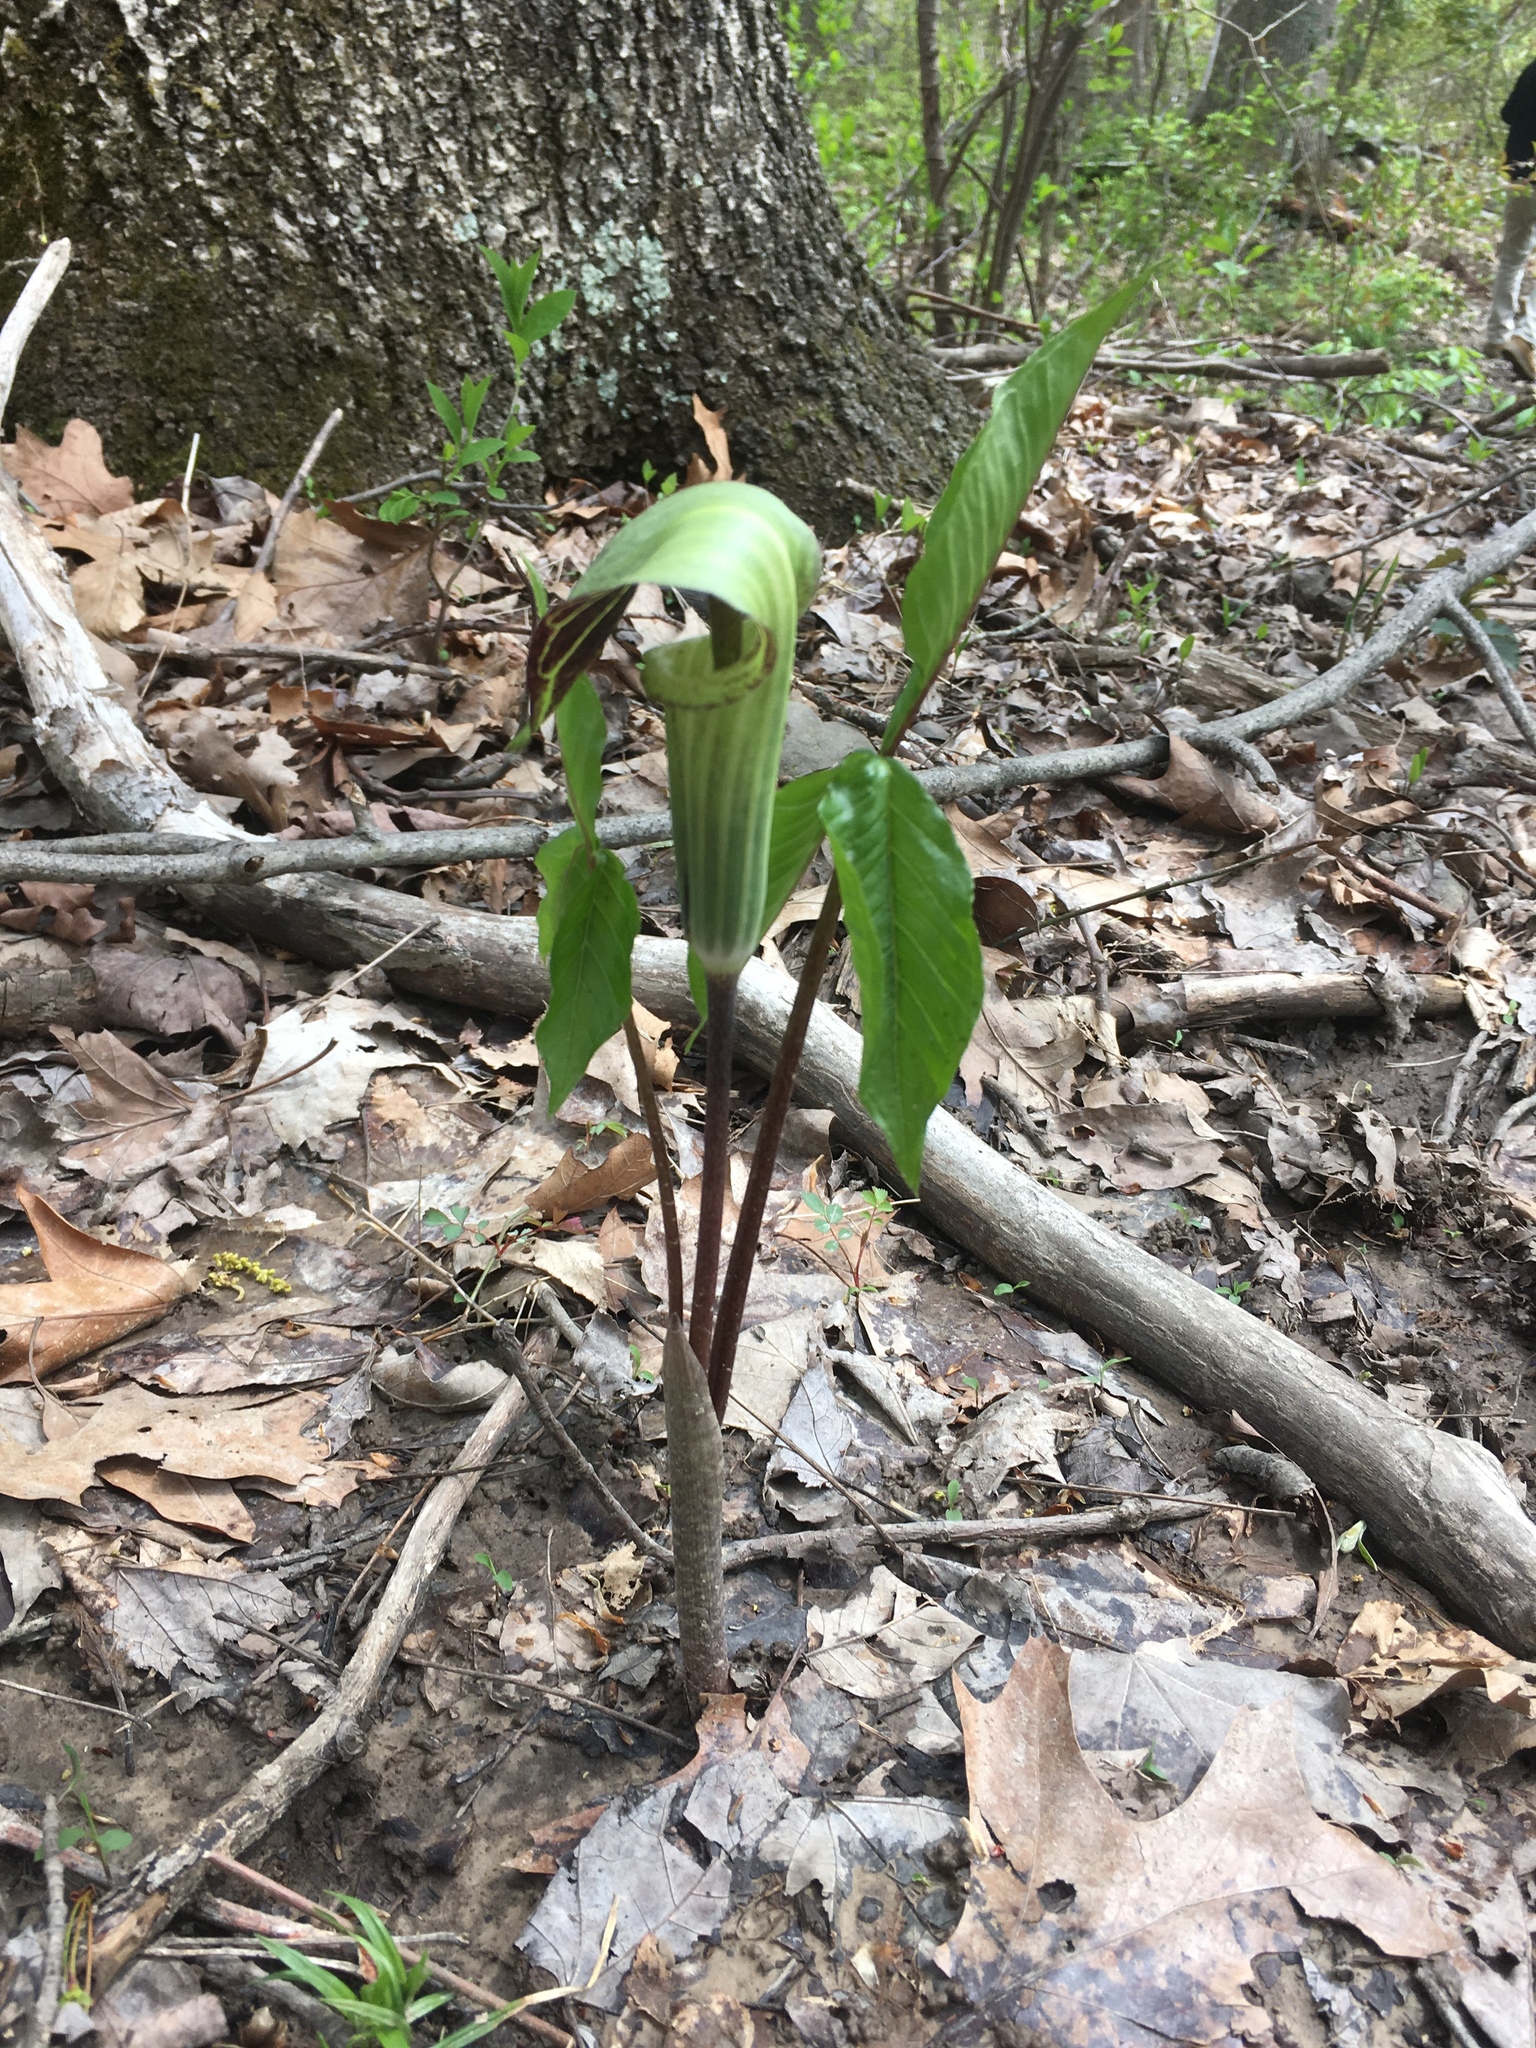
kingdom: Plantae
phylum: Tracheophyta
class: Liliopsida
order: Alismatales
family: Araceae
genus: Arisaema
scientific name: Arisaema triphyllum
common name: Jack-in-the-pulpit
